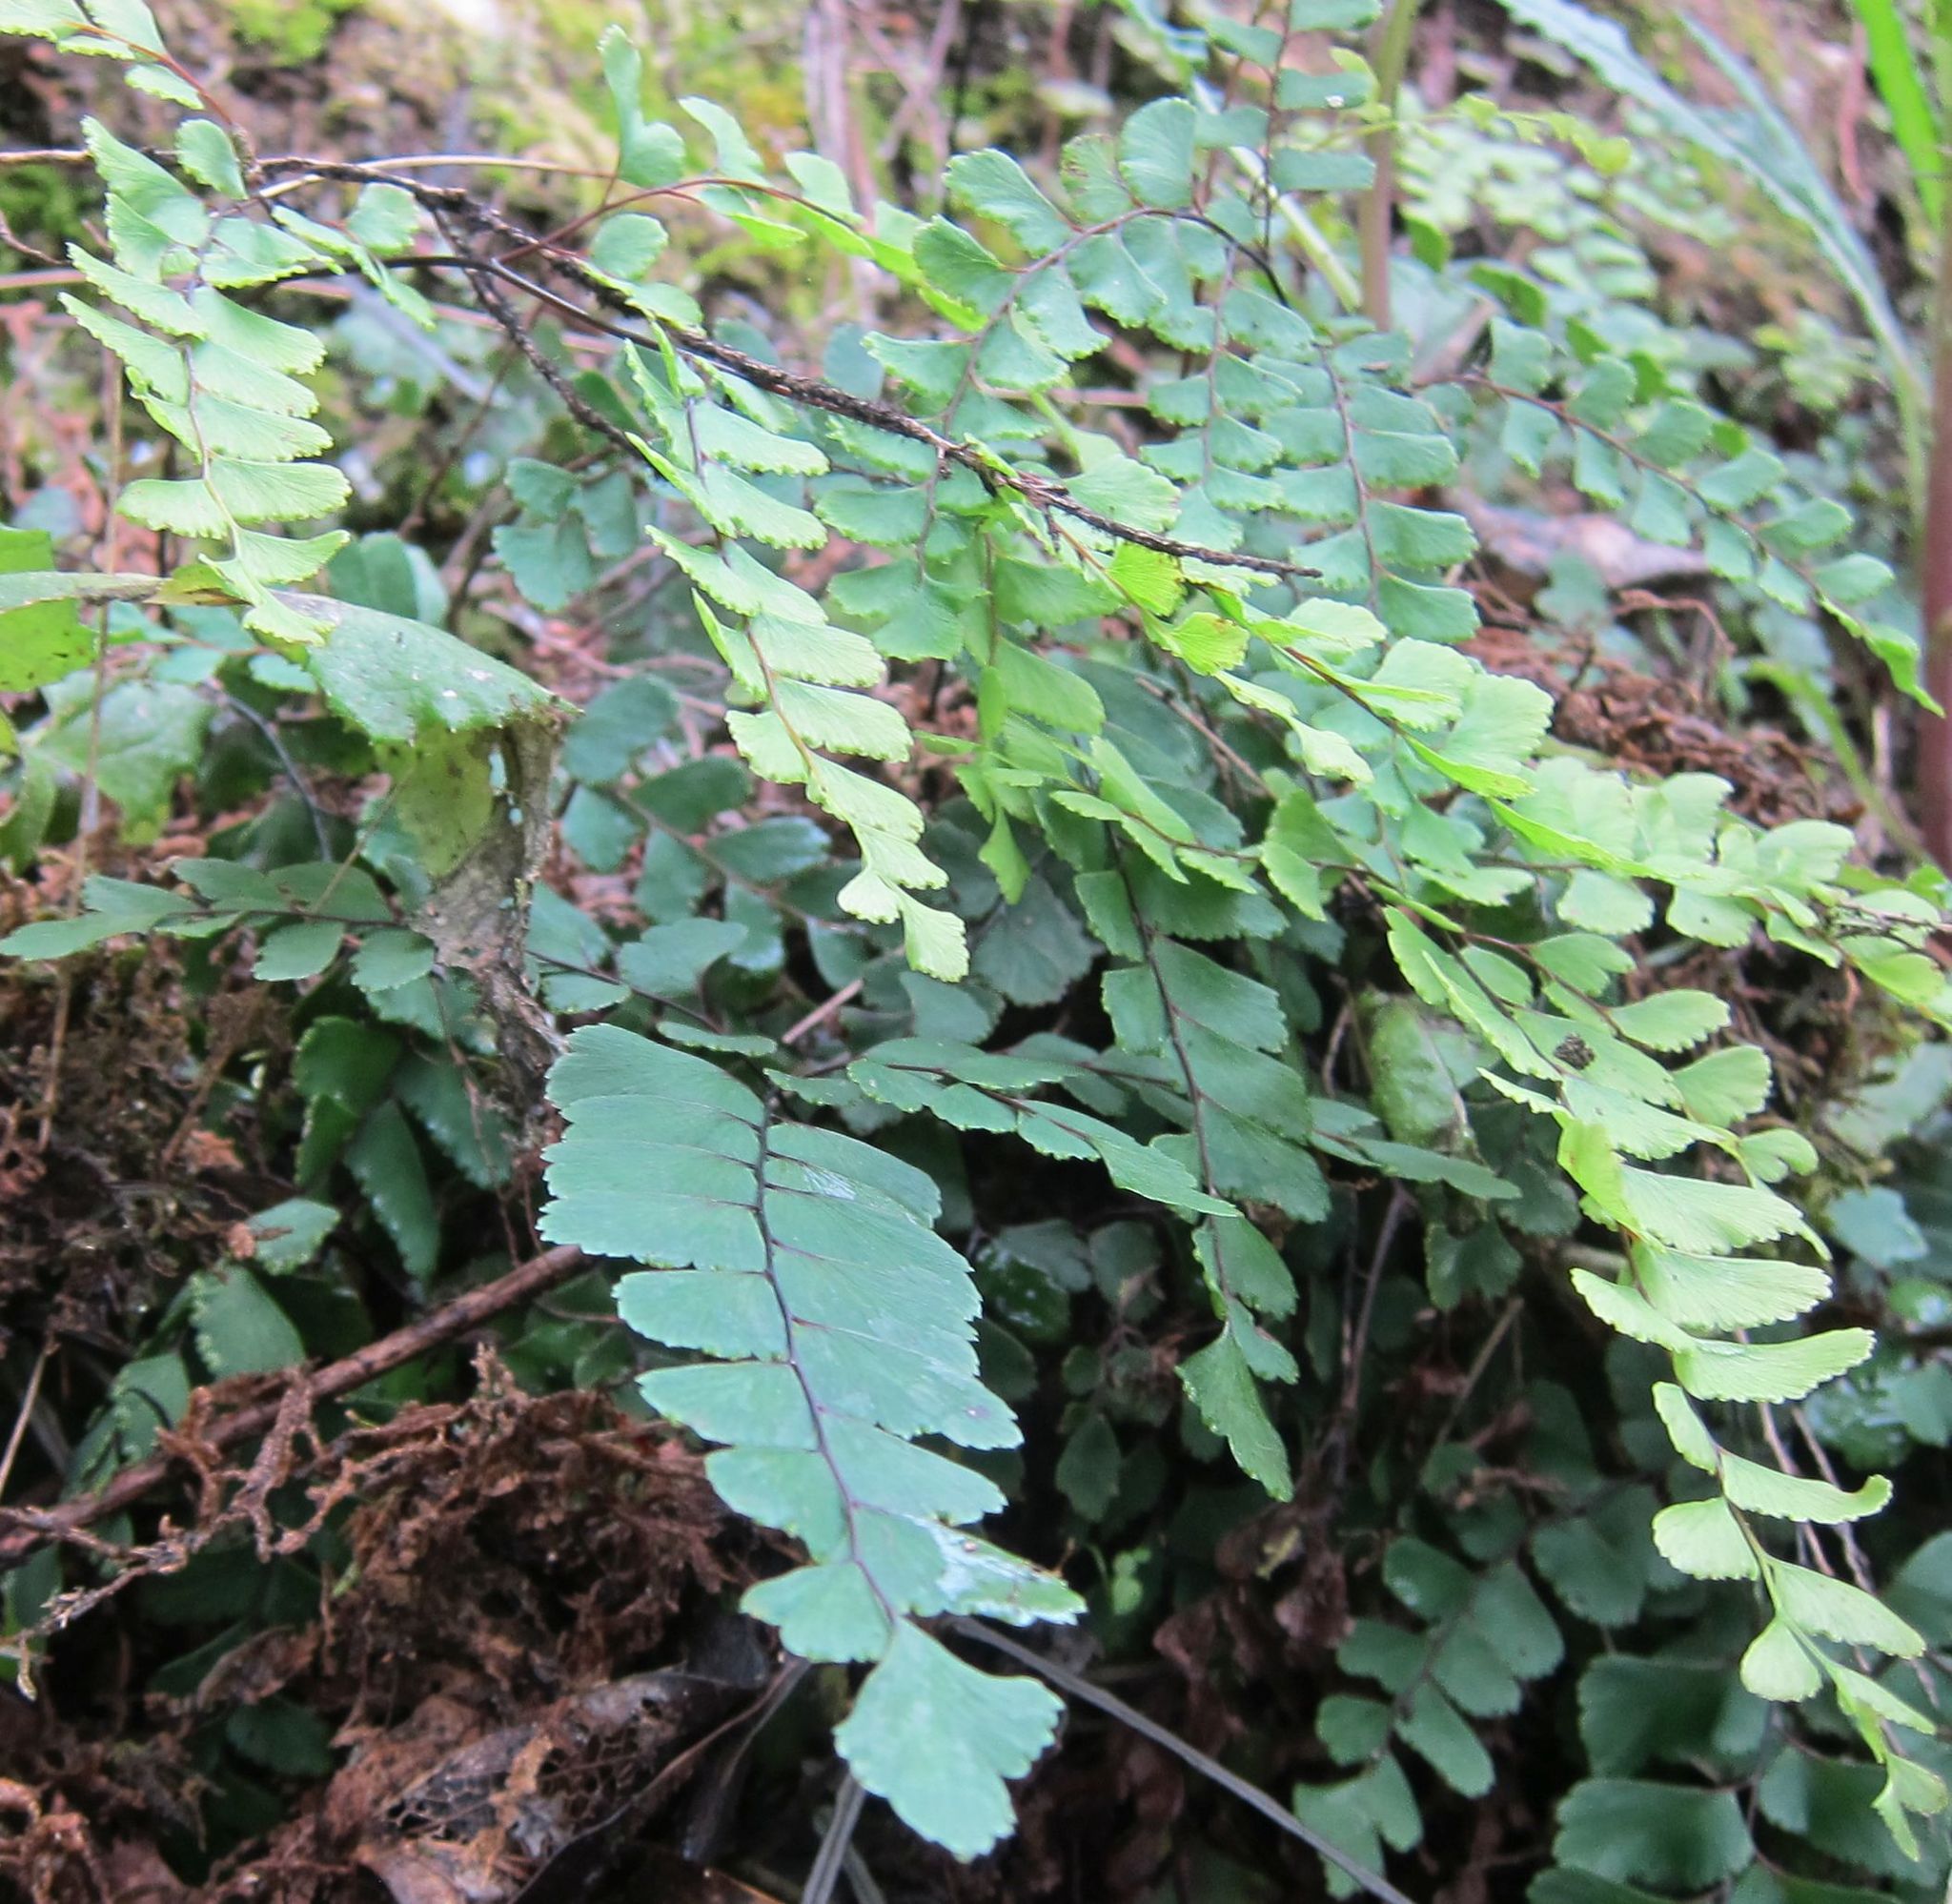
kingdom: Plantae
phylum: Tracheophyta
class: Polypodiopsida
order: Polypodiales
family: Pteridaceae
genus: Adiantum
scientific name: Adiantum cunninghamii
